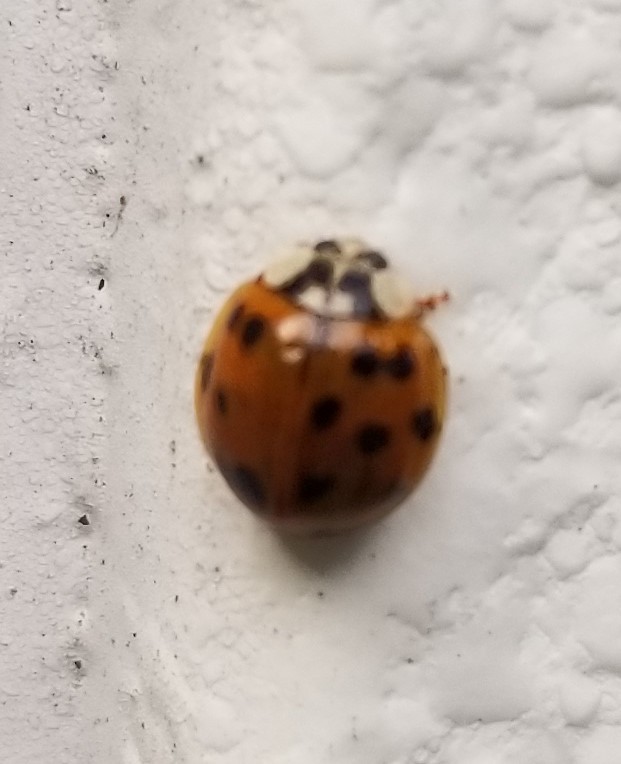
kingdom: Animalia
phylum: Arthropoda
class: Insecta
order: Coleoptera
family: Coccinellidae
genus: Harmonia
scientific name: Harmonia axyridis
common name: Harlequin ladybird
